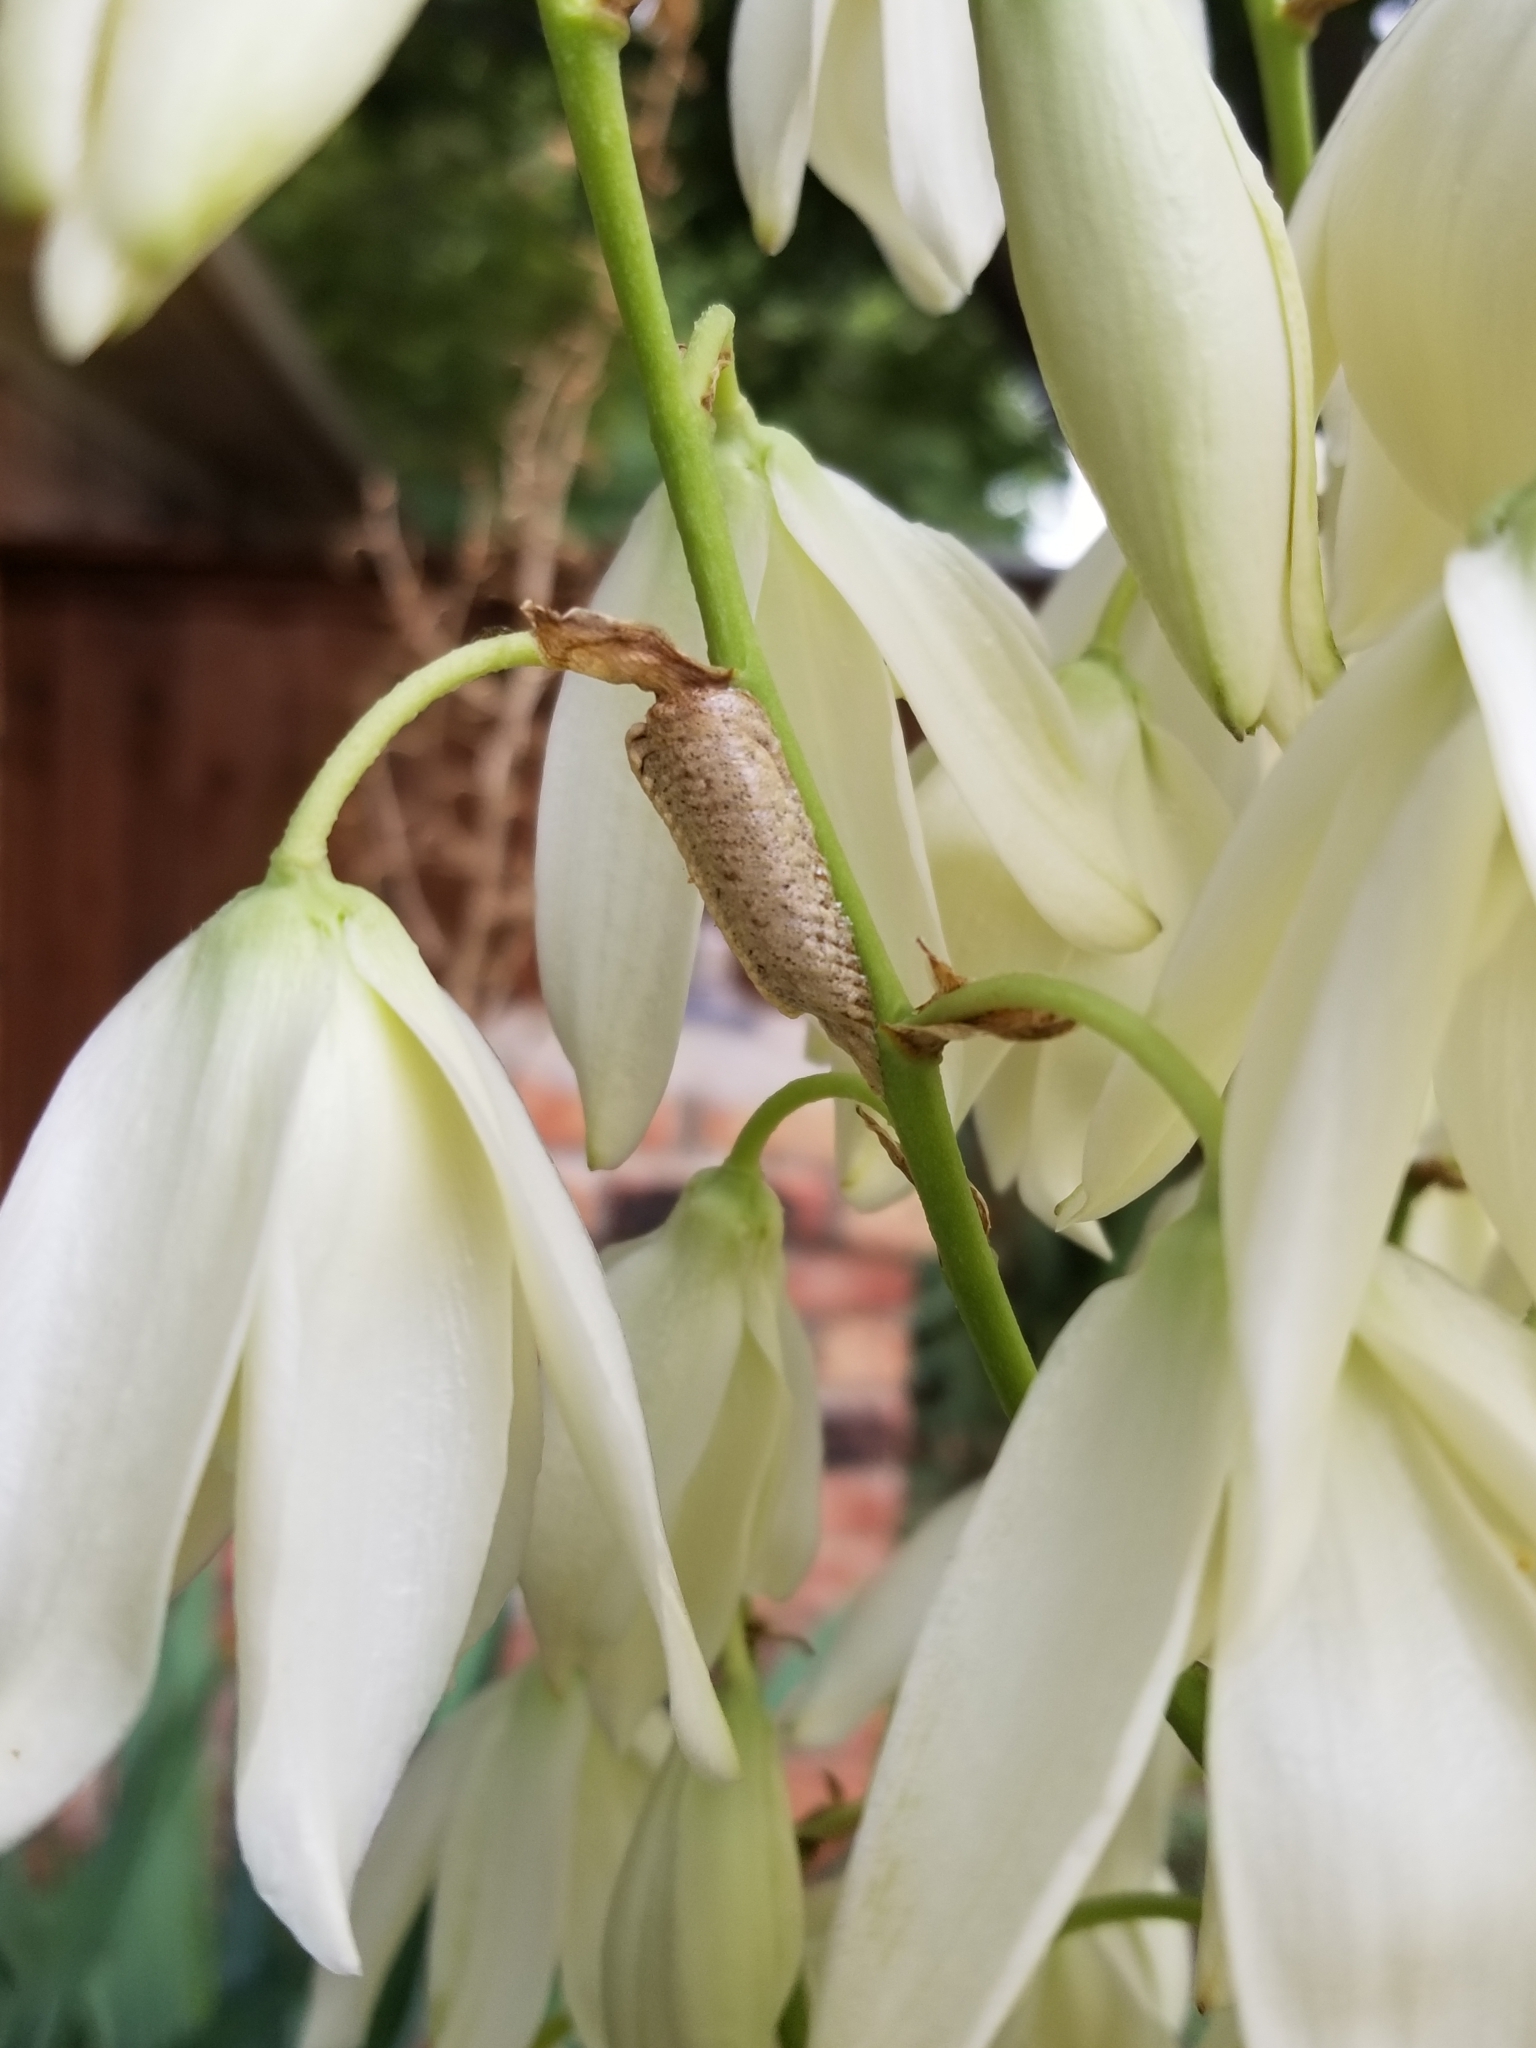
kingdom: Animalia
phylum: Arthropoda
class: Insecta
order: Mantodea
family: Mantidae
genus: Stagmomantis
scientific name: Stagmomantis carolina
